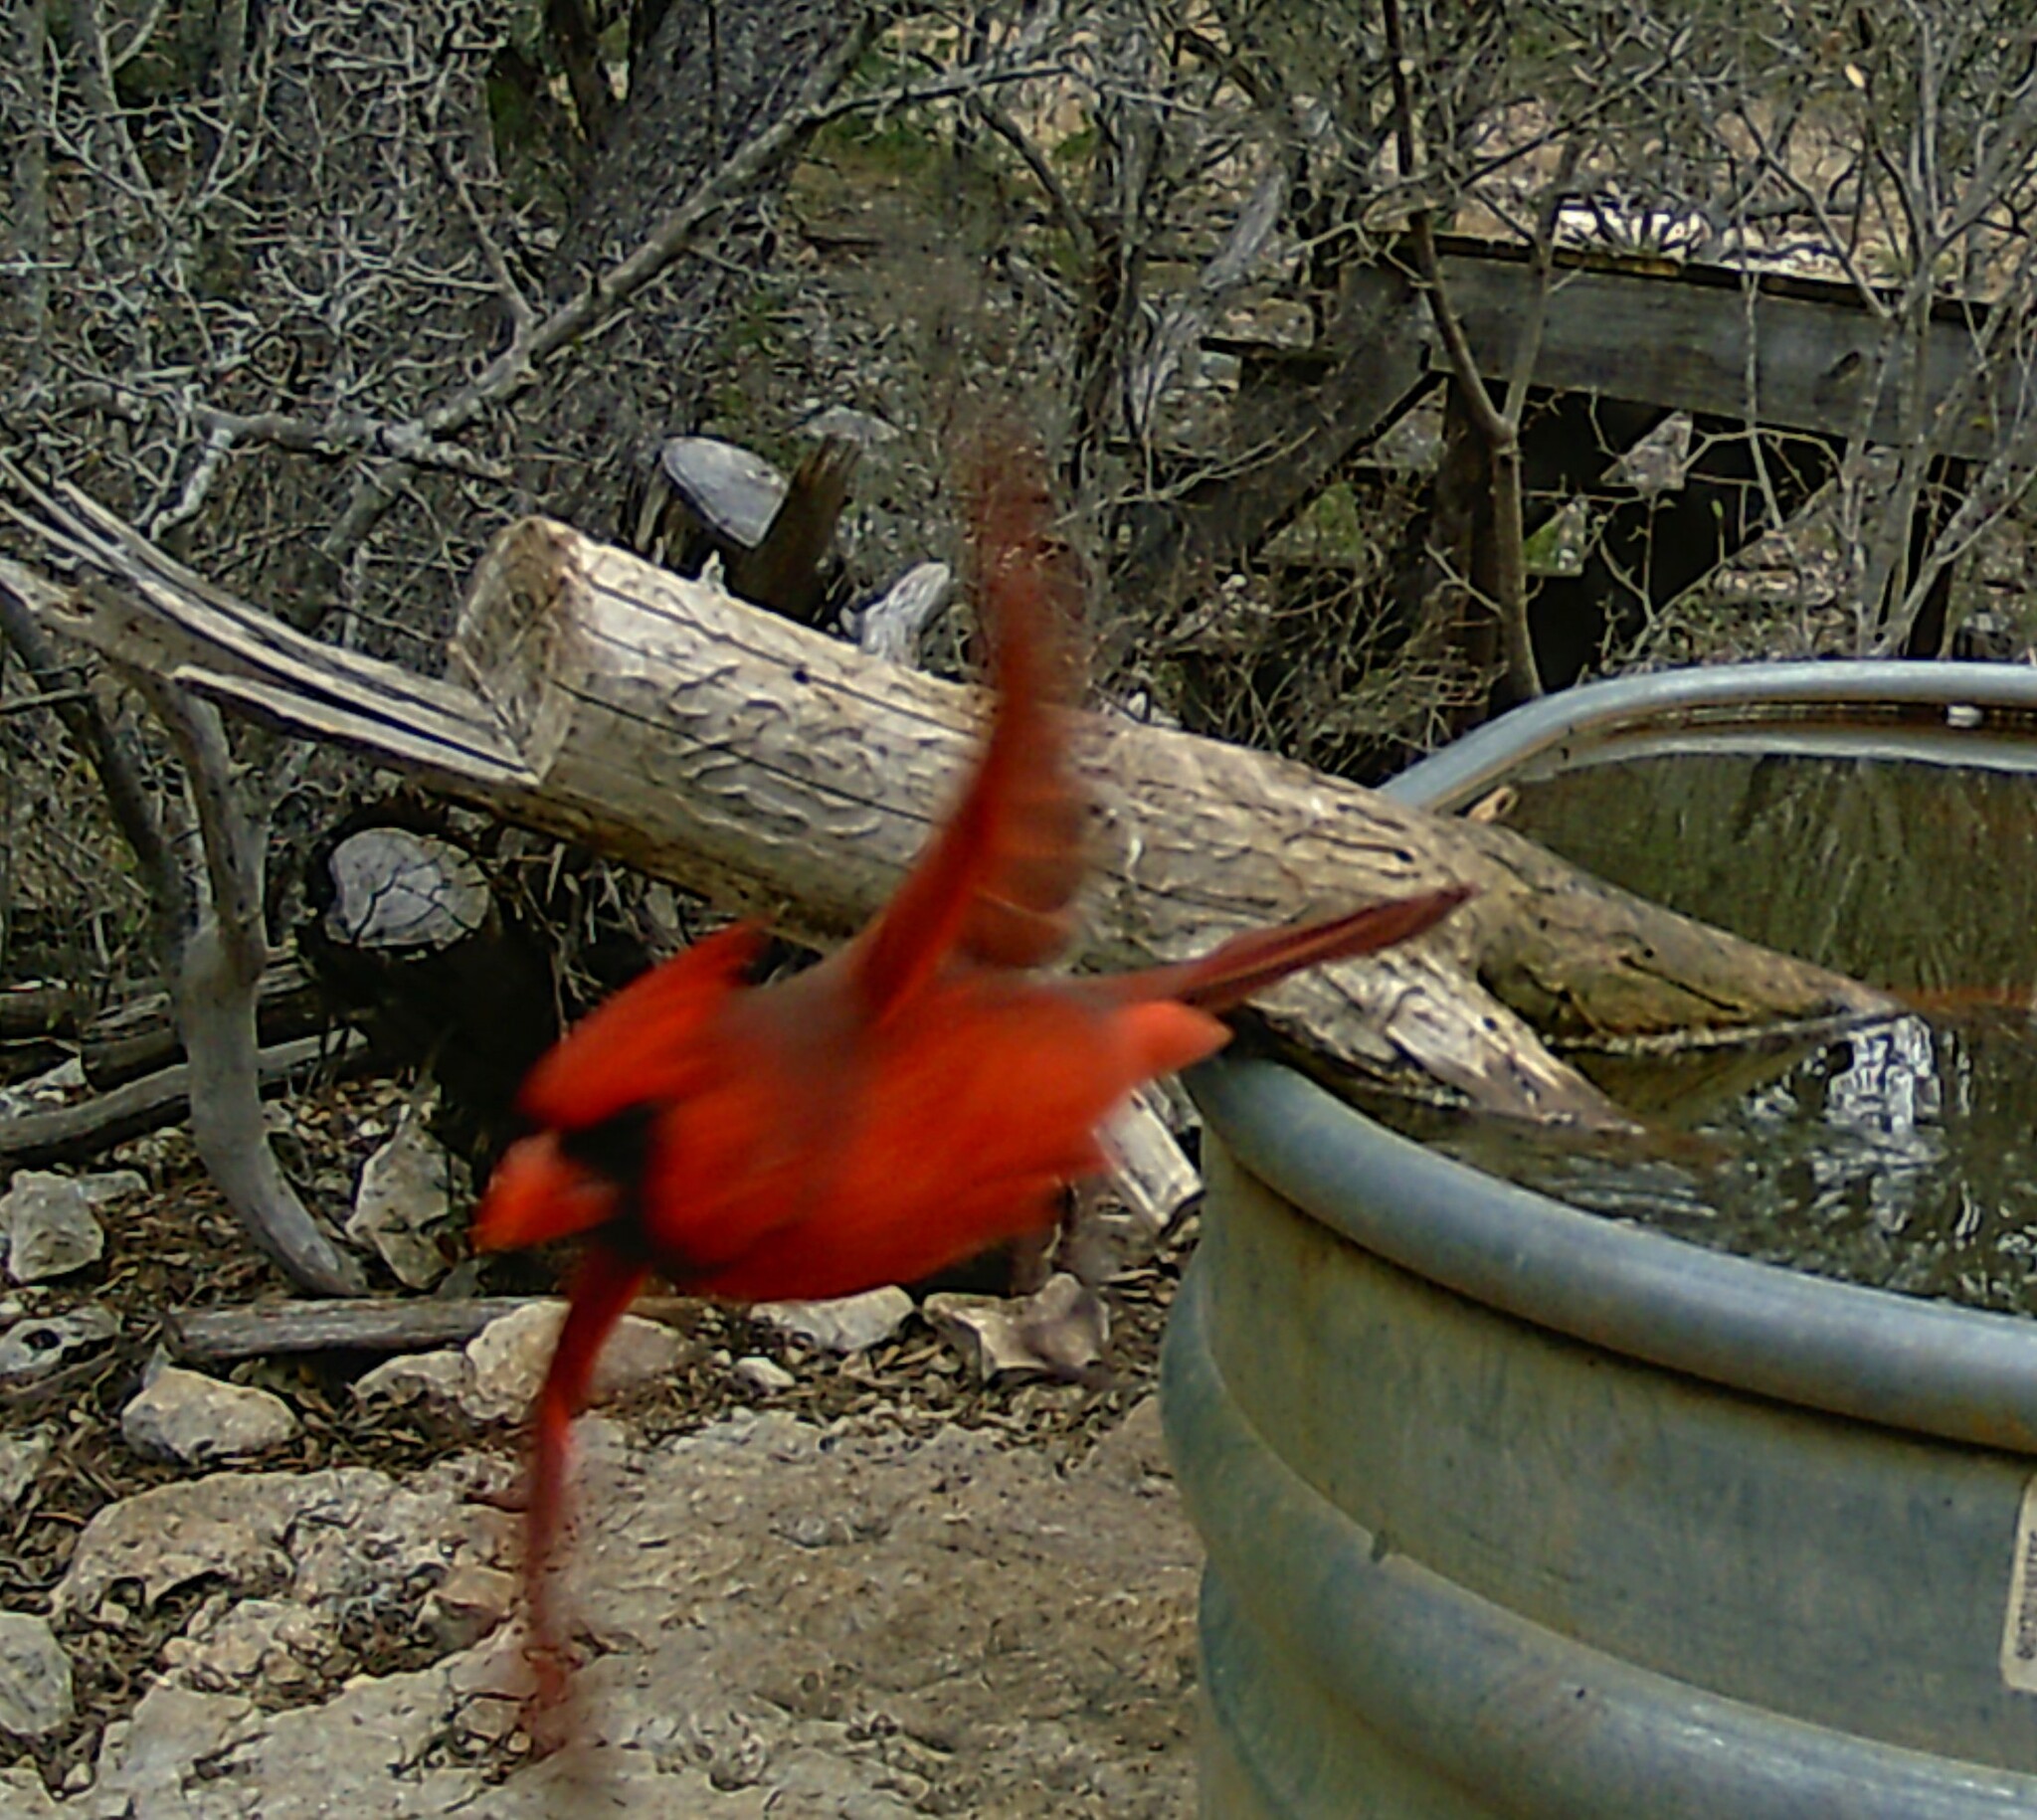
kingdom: Animalia
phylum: Chordata
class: Aves
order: Passeriformes
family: Cardinalidae
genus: Cardinalis
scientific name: Cardinalis cardinalis
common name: Northern cardinal
